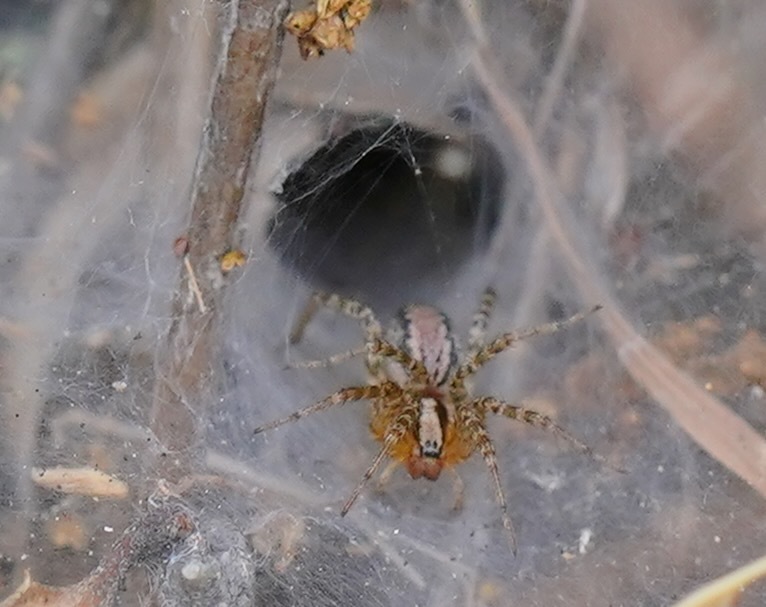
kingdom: Animalia
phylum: Arthropoda
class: Arachnida
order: Araneae
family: Agelenidae
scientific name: Agelenidae
